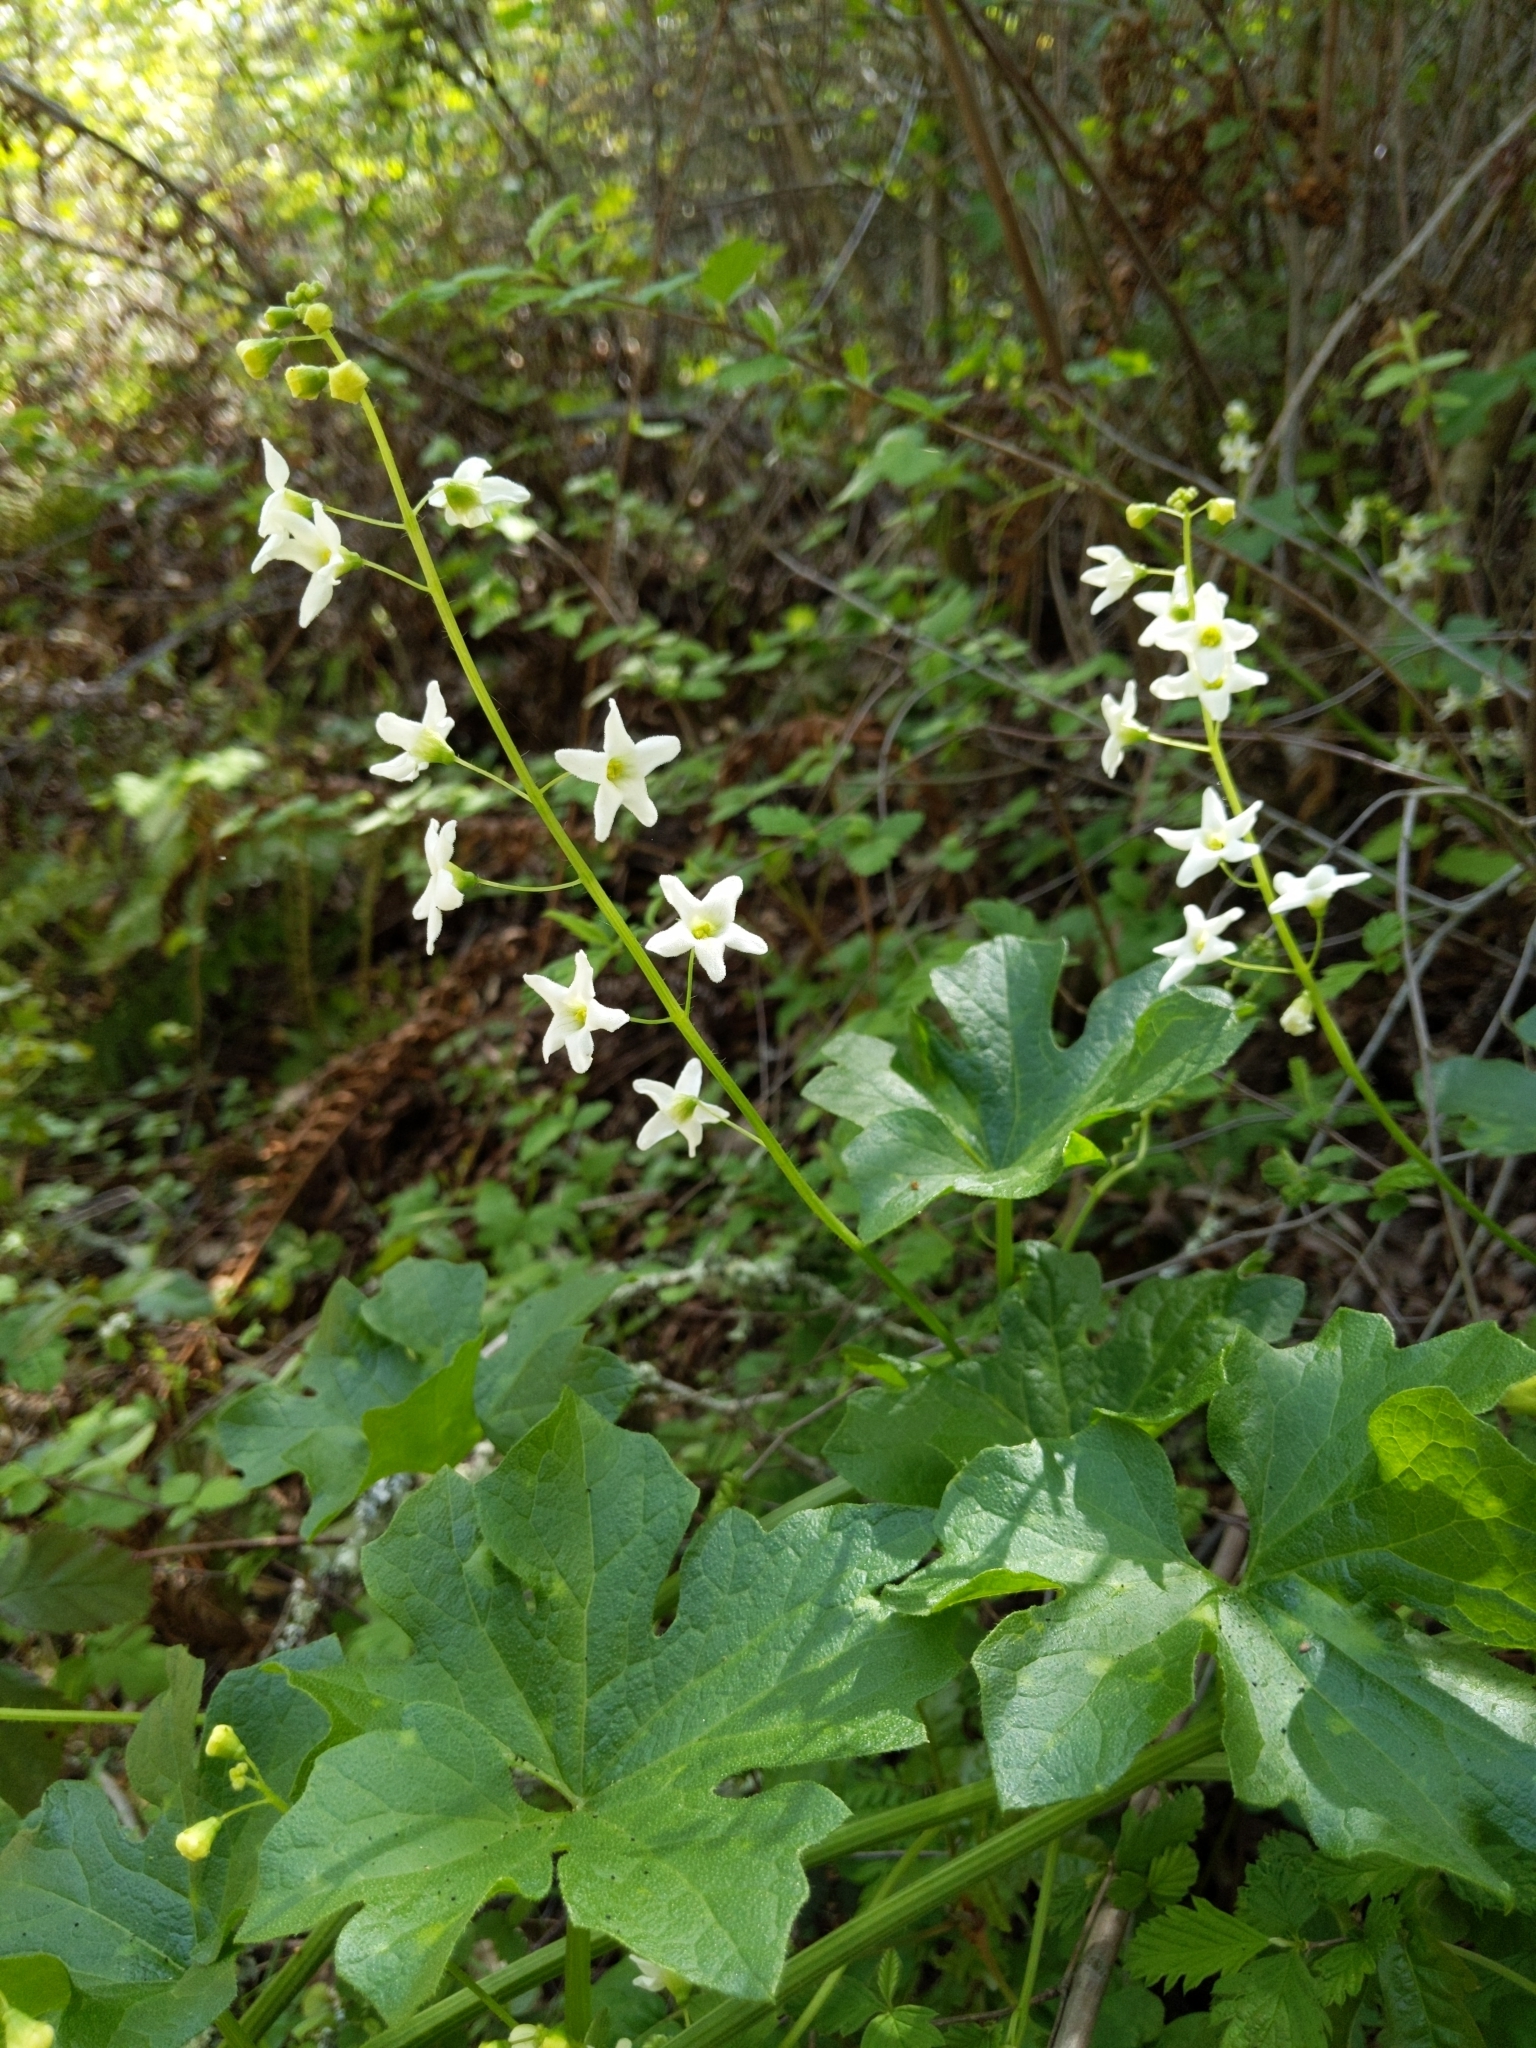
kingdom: Plantae
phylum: Tracheophyta
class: Magnoliopsida
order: Cucurbitales
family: Cucurbitaceae
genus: Marah
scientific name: Marah oregana
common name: Coastal manroot
